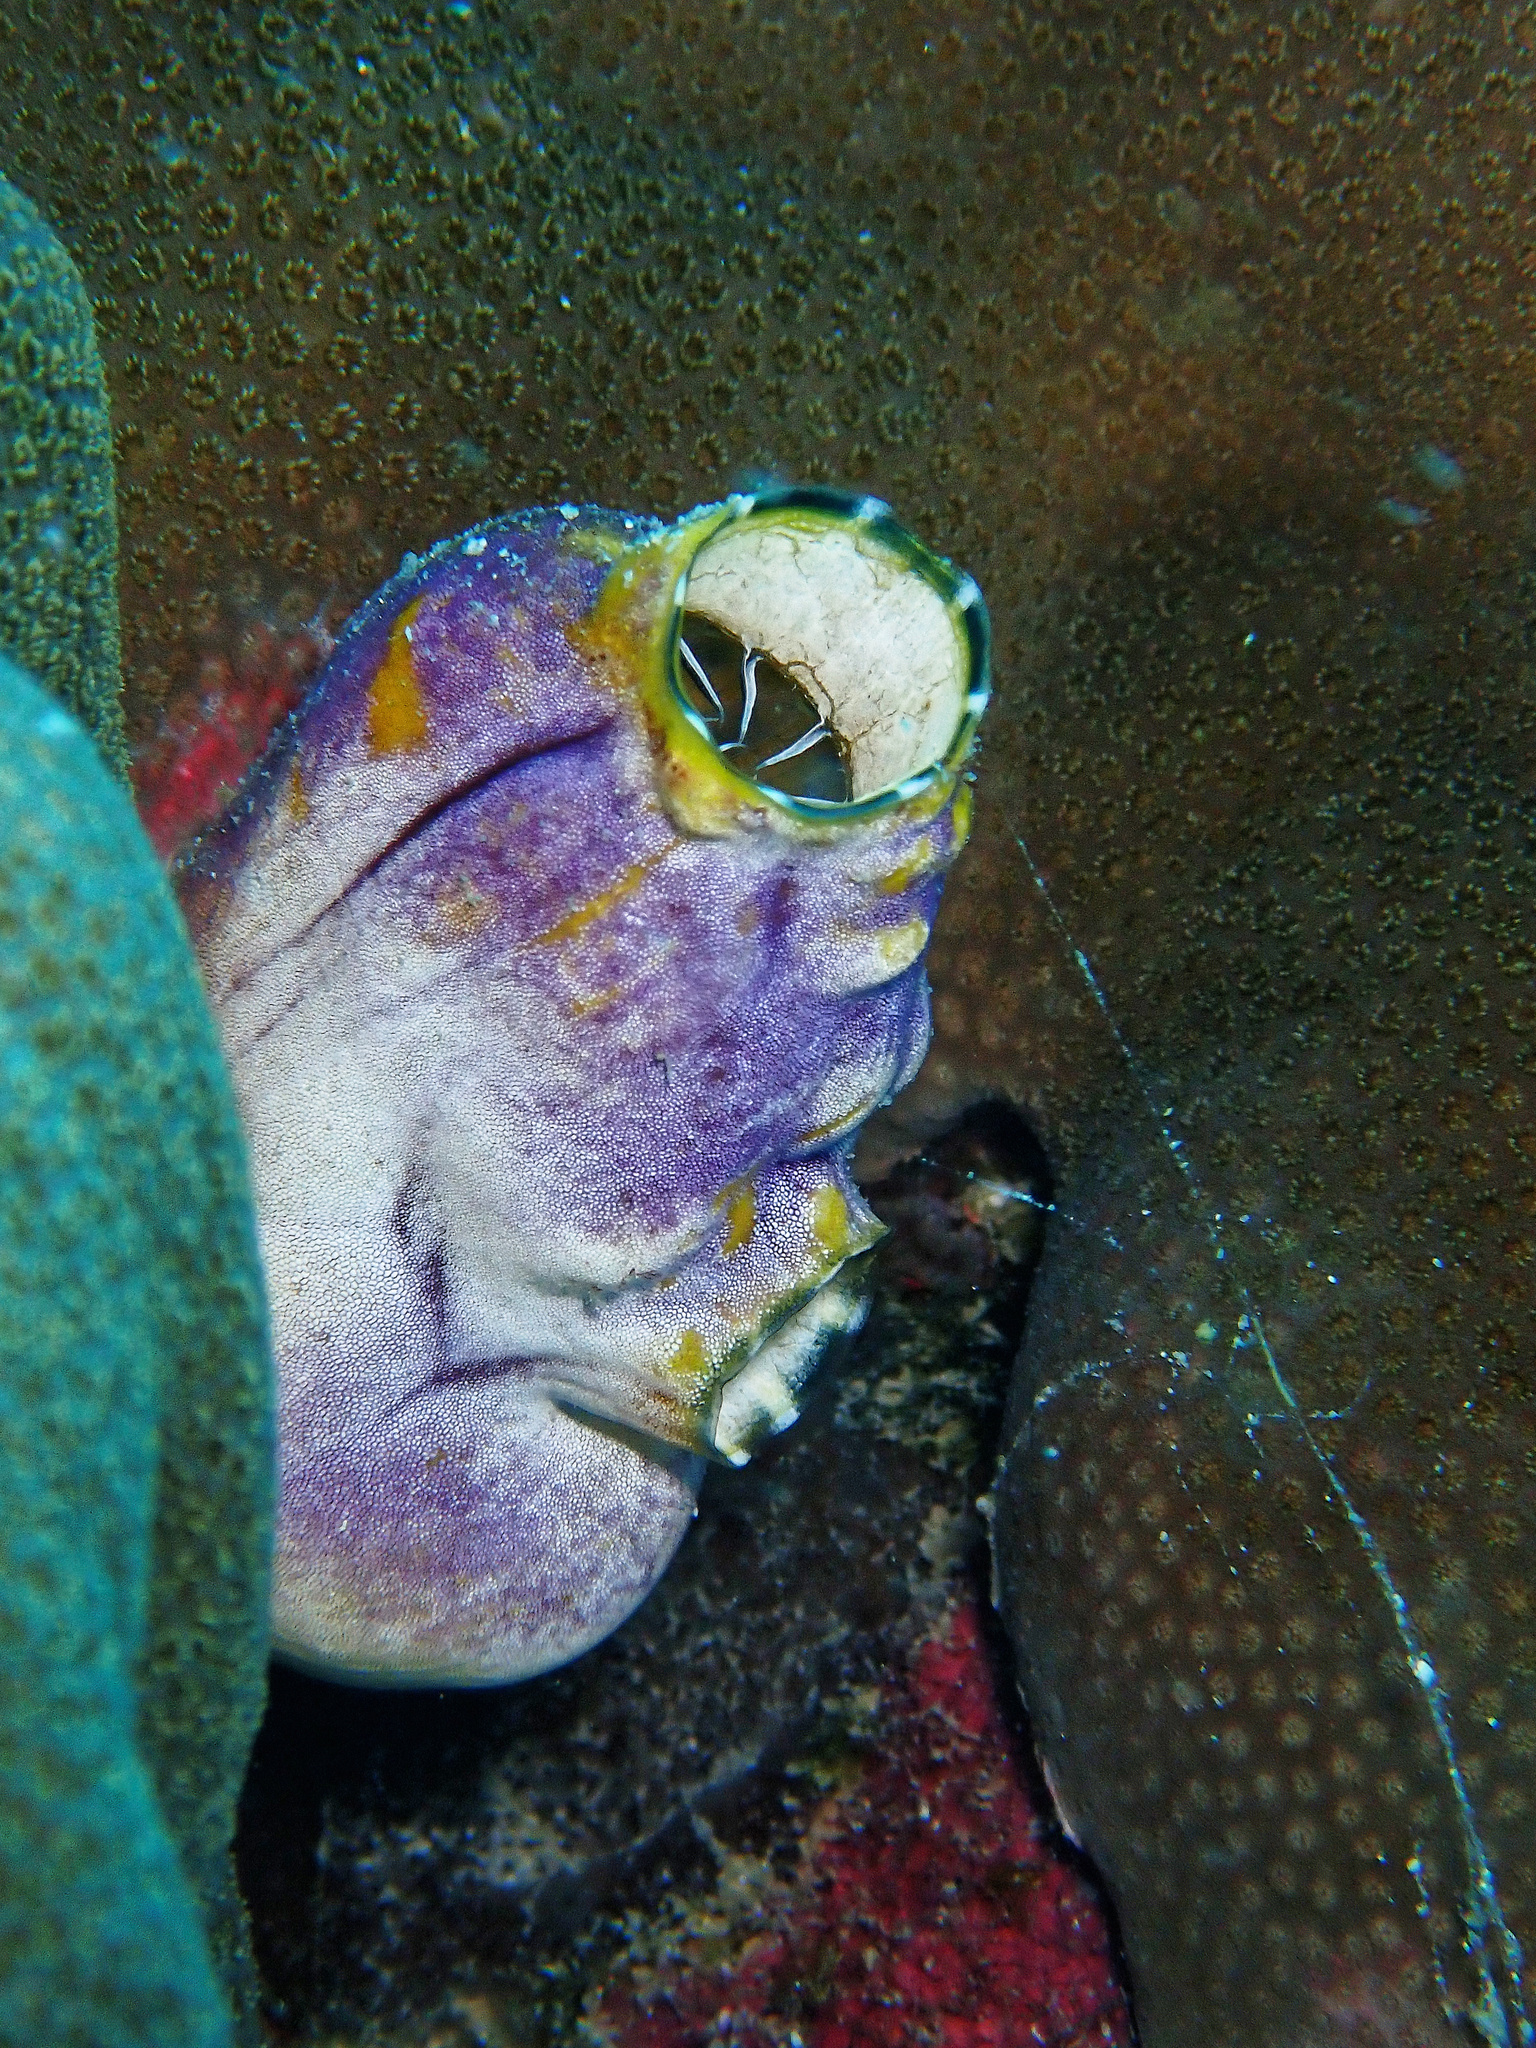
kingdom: Animalia
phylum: Chordata
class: Ascidiacea
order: Stolidobranchia
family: Styelidae
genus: Polycarpa
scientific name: Polycarpa aurata
